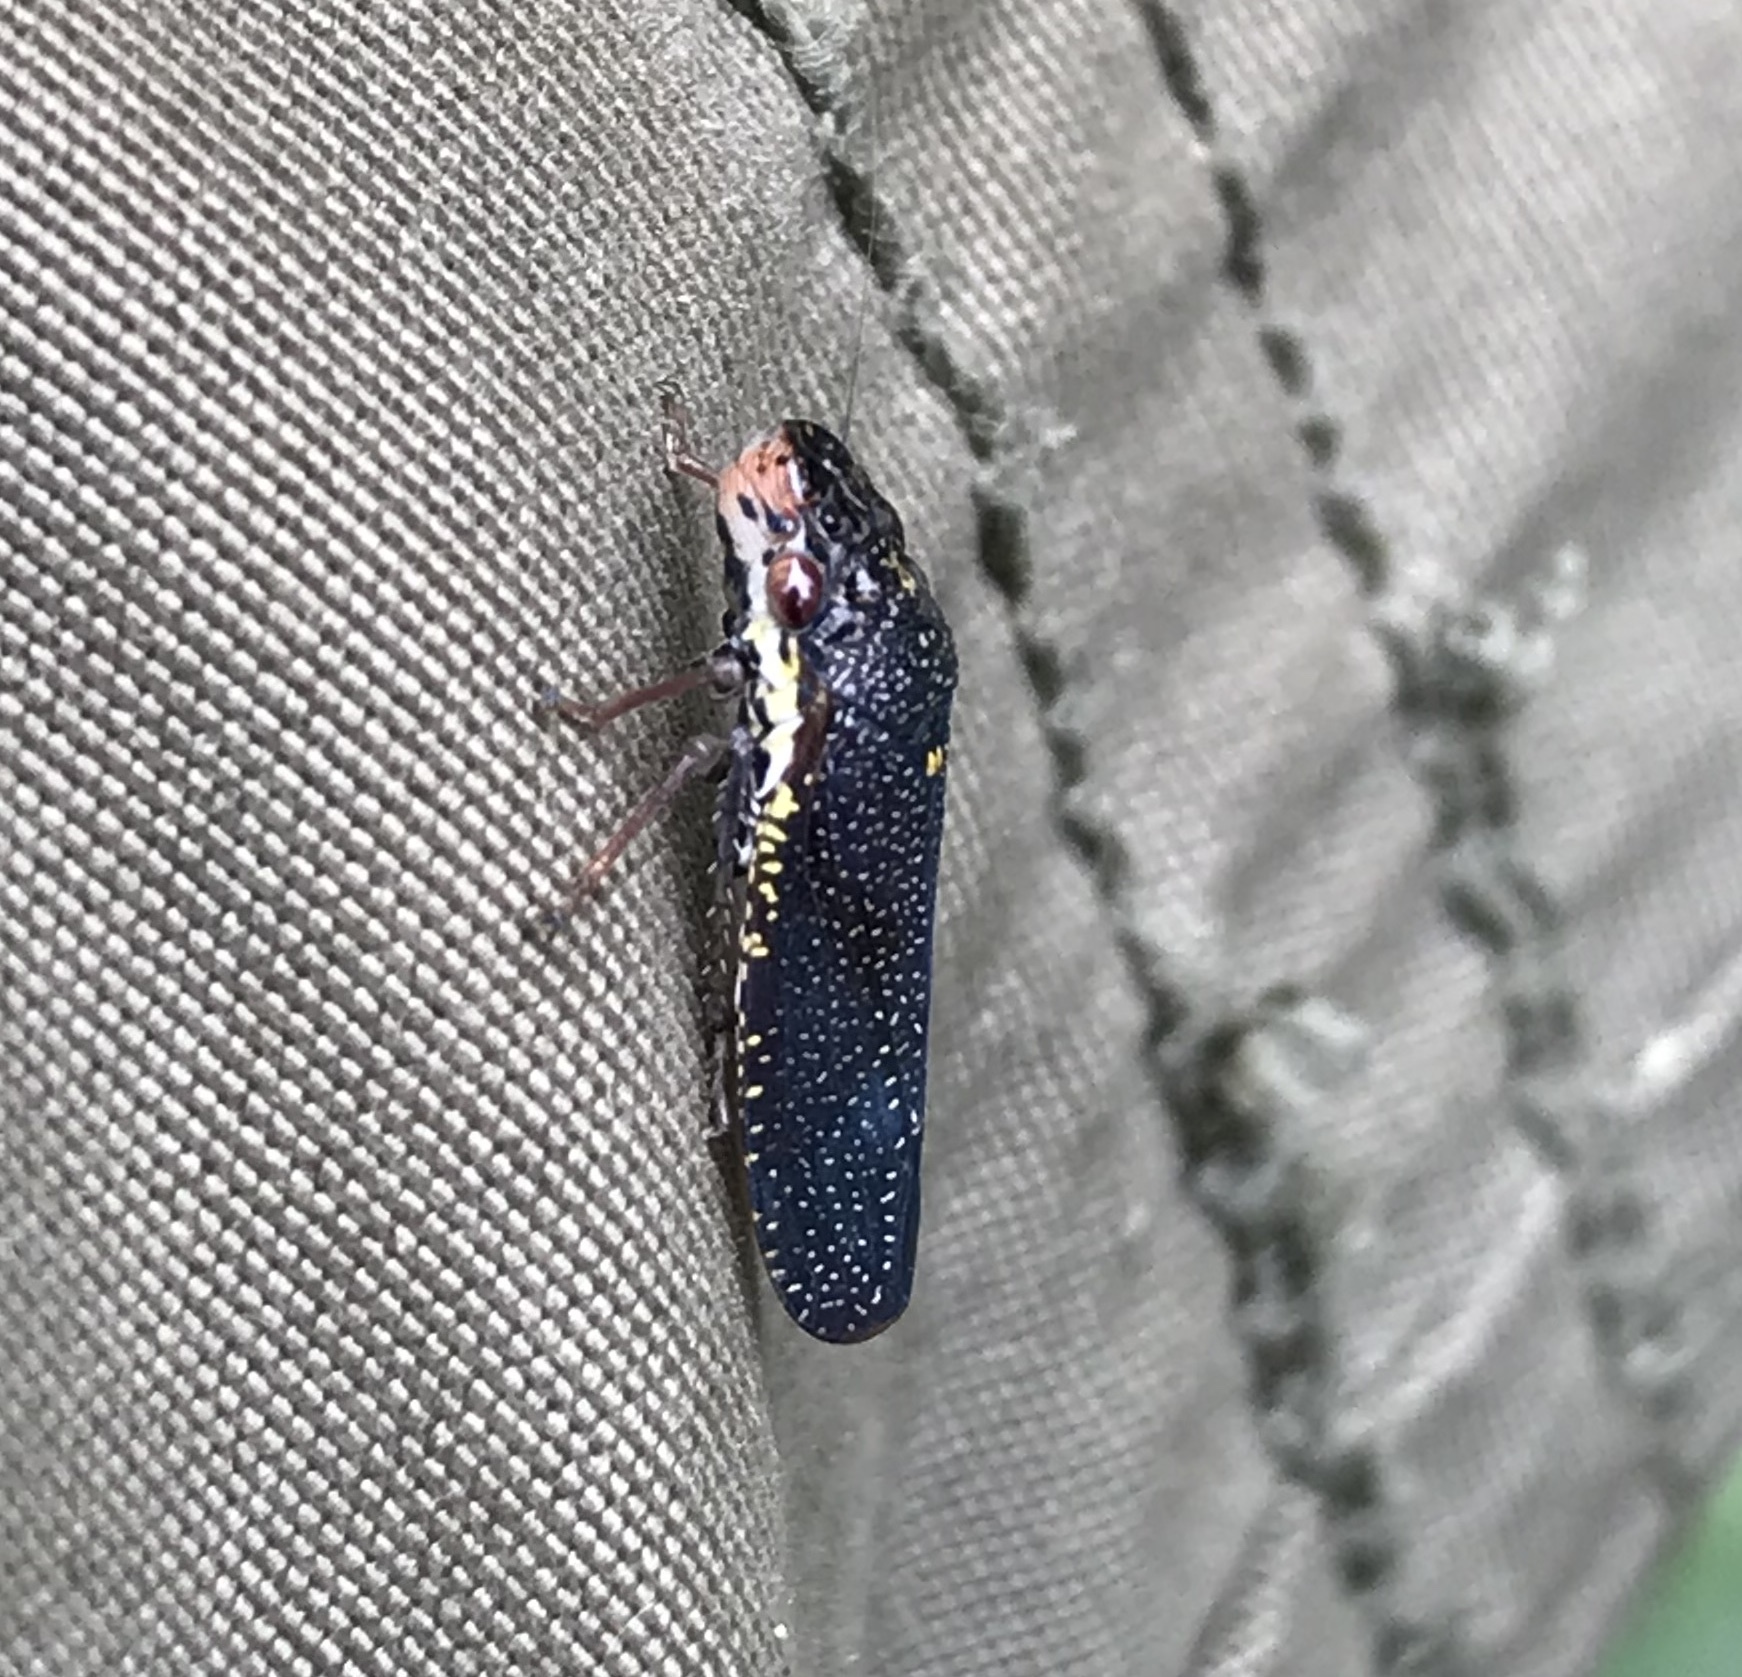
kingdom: Animalia
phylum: Arthropoda
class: Insecta
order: Hemiptera
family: Cicadellidae
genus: Paraulacizes
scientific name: Paraulacizes irrorata
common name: Speckled sharpshooter
